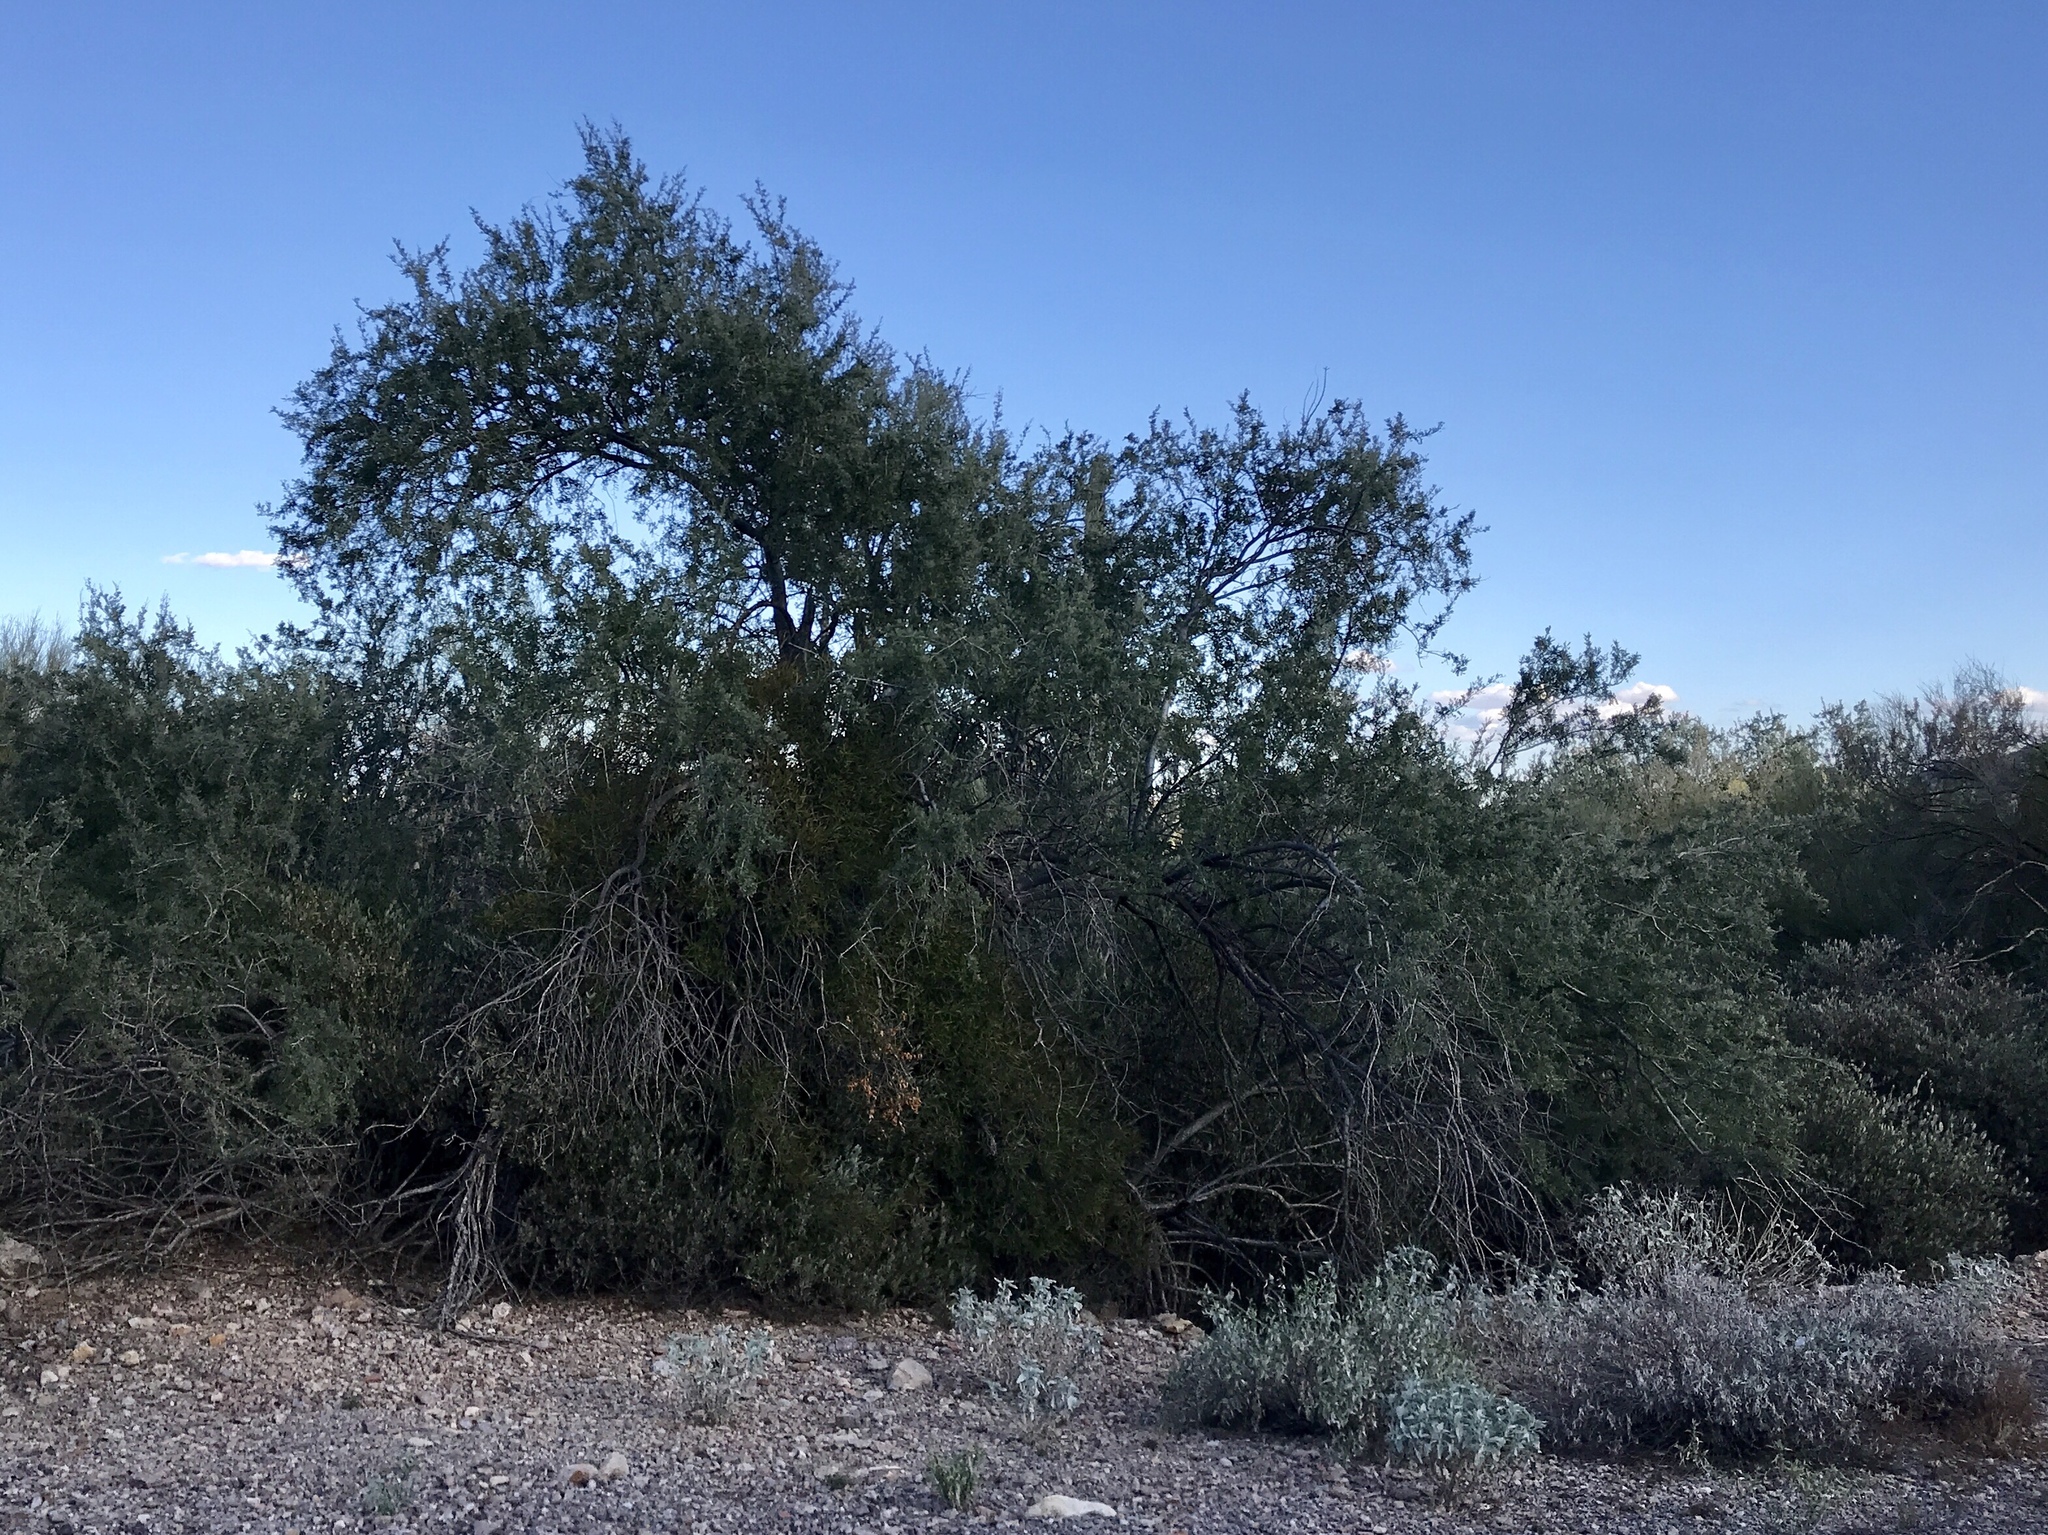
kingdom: Plantae
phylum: Tracheophyta
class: Magnoliopsida
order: Fabales
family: Fabaceae
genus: Olneya
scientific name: Olneya tesota
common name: Desert ironwood
